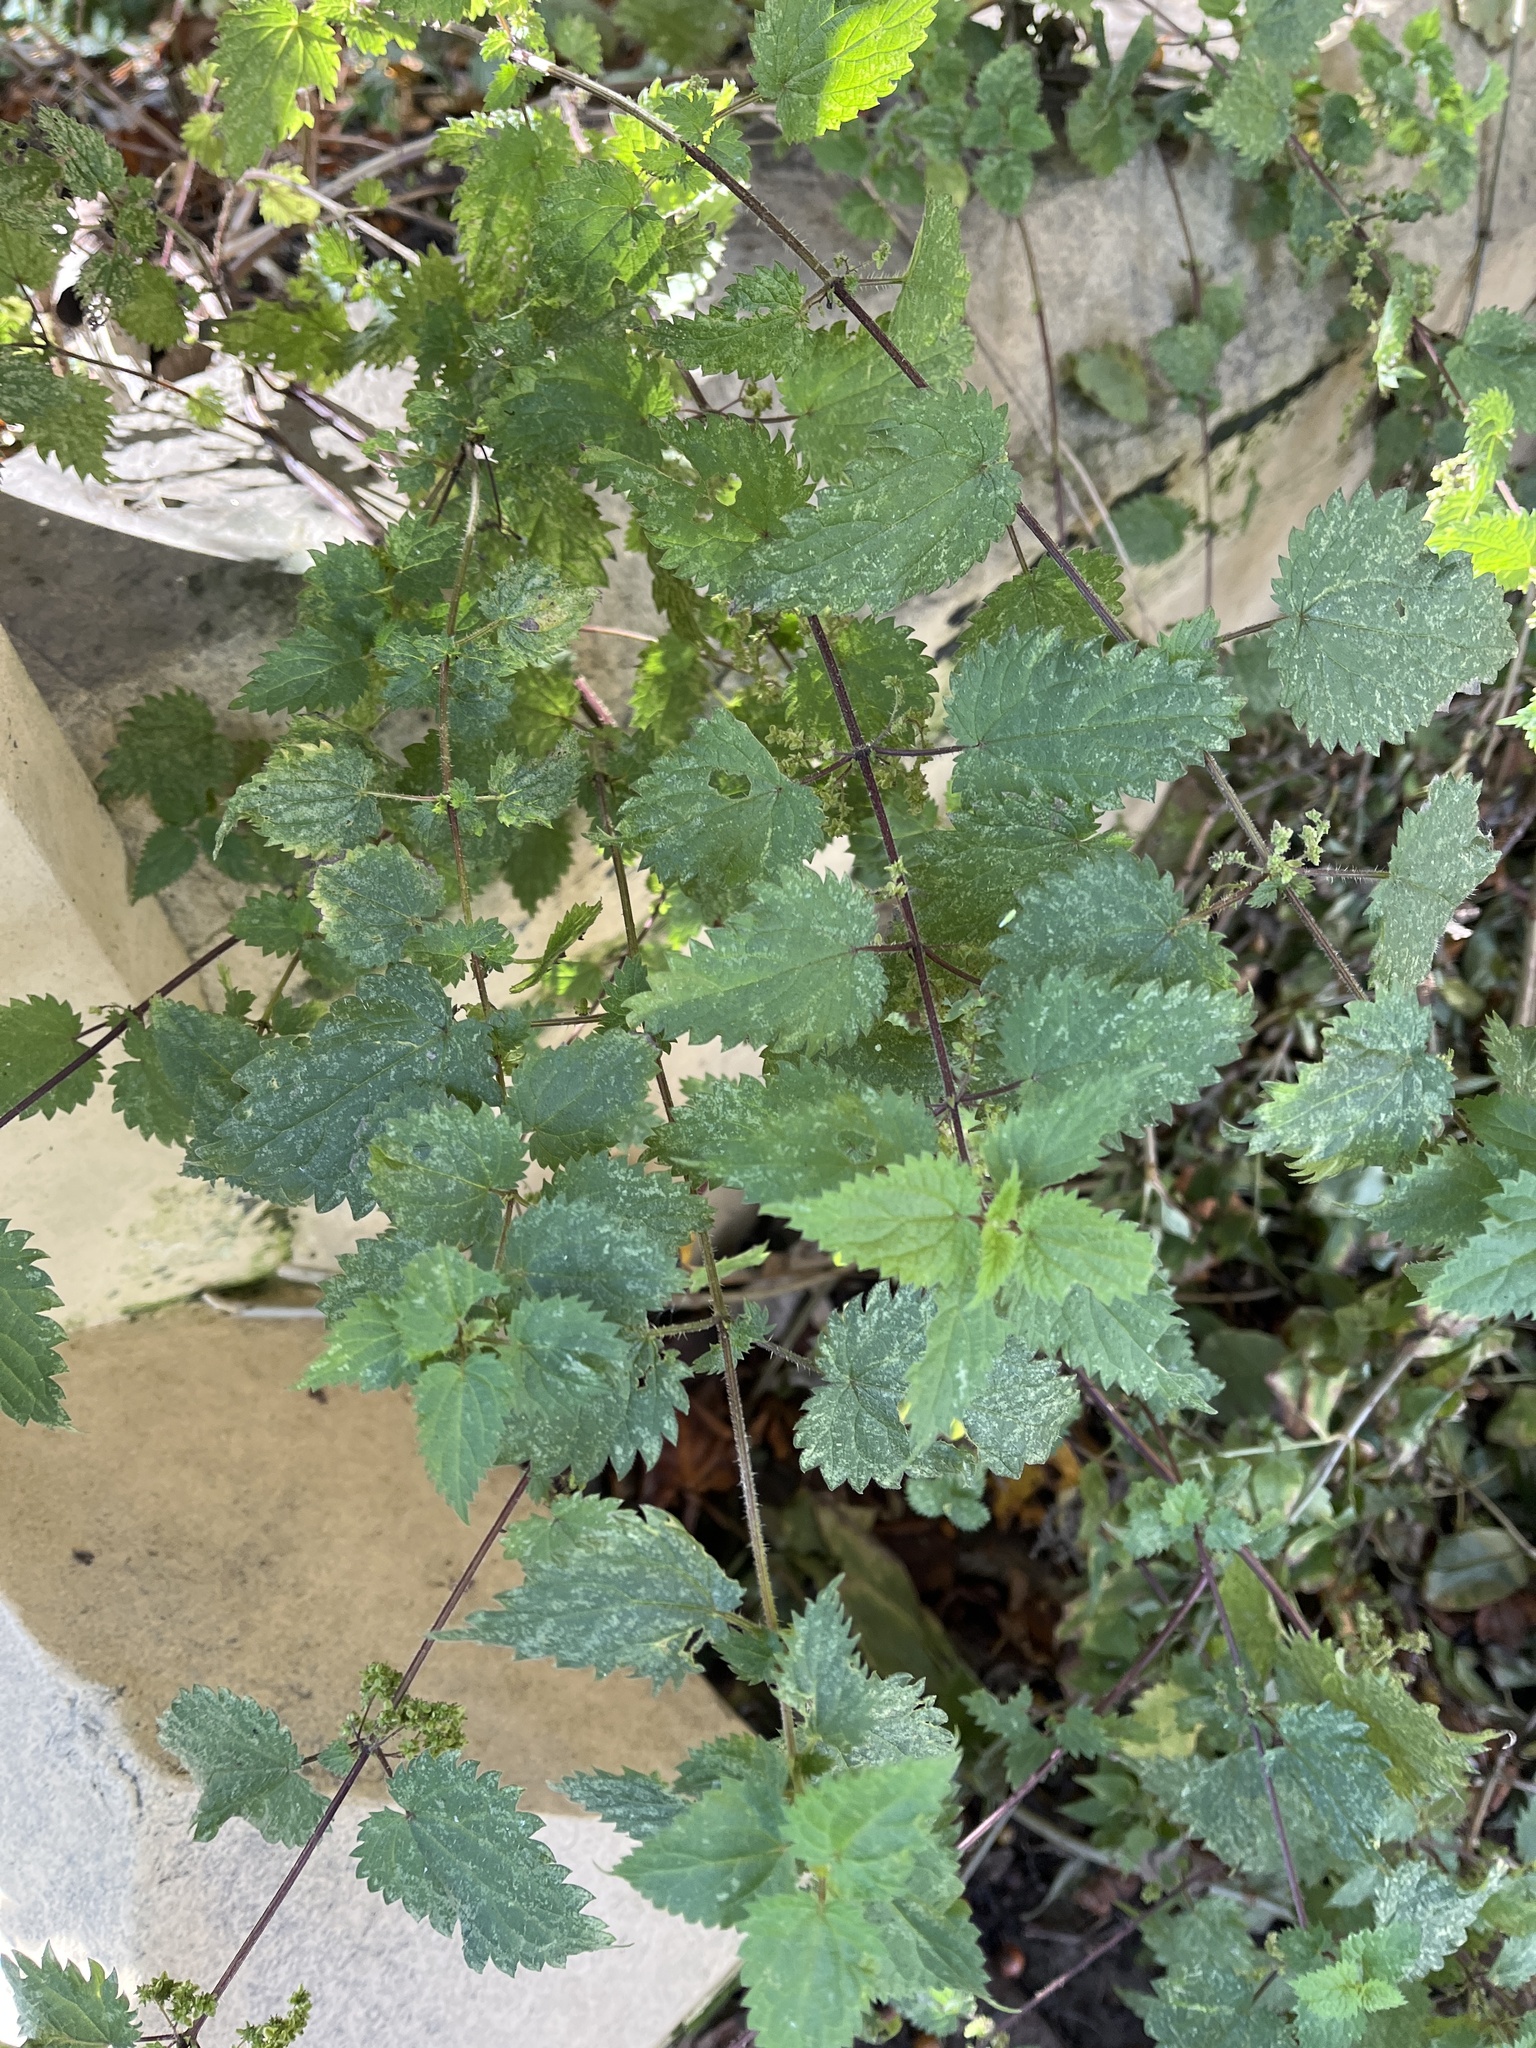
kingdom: Plantae
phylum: Tracheophyta
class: Magnoliopsida
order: Rosales
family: Urticaceae
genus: Urtica
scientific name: Urtica dioica
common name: Common nettle
